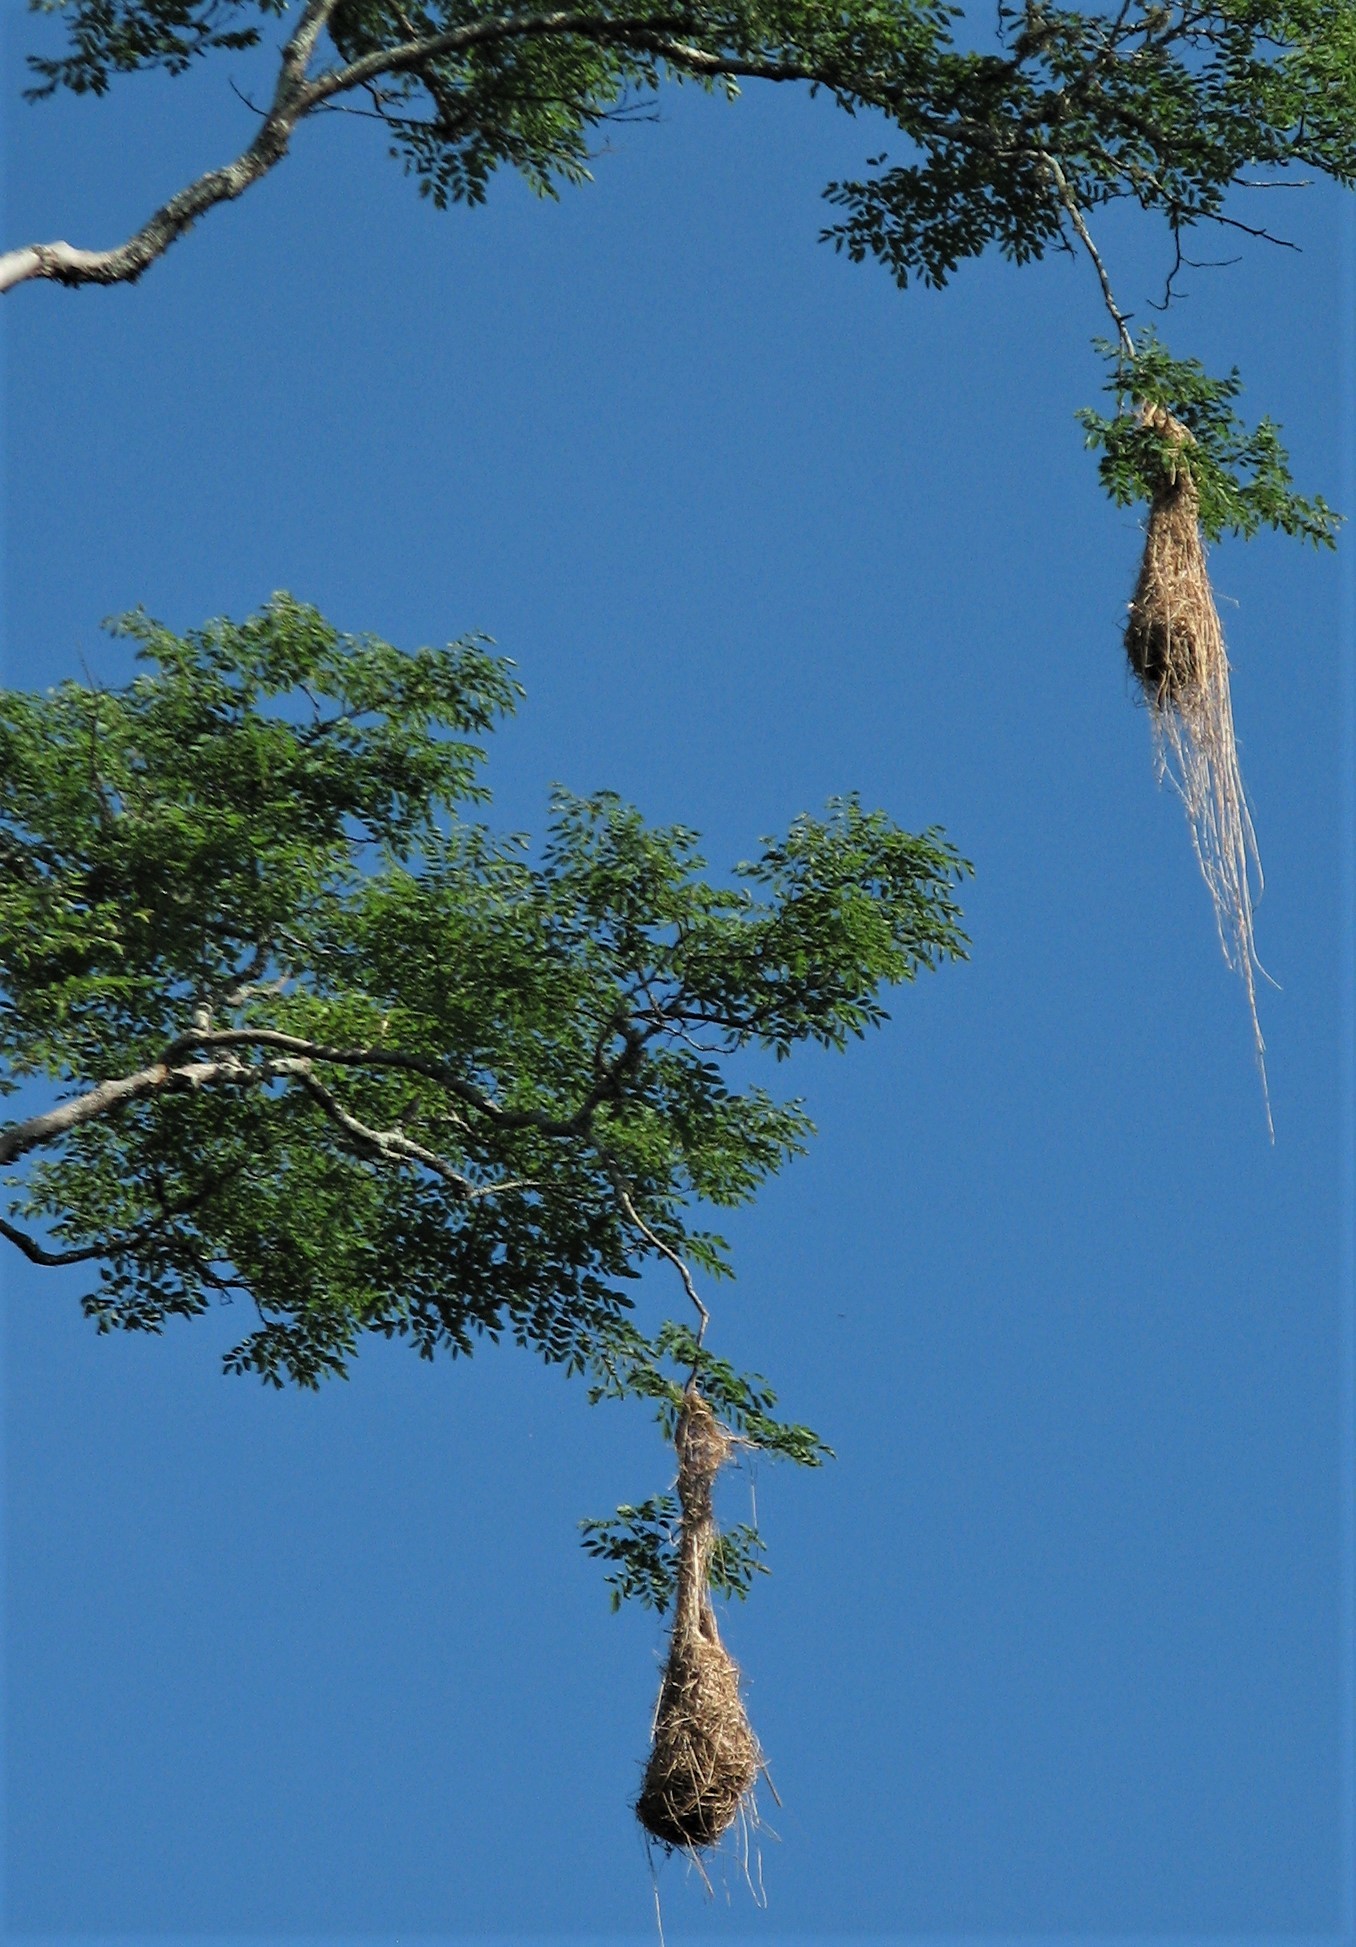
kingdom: Animalia
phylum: Chordata
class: Aves
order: Passeriformes
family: Icteridae
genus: Psarocolius
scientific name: Psarocolius decumanus
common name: Crested oropendola
